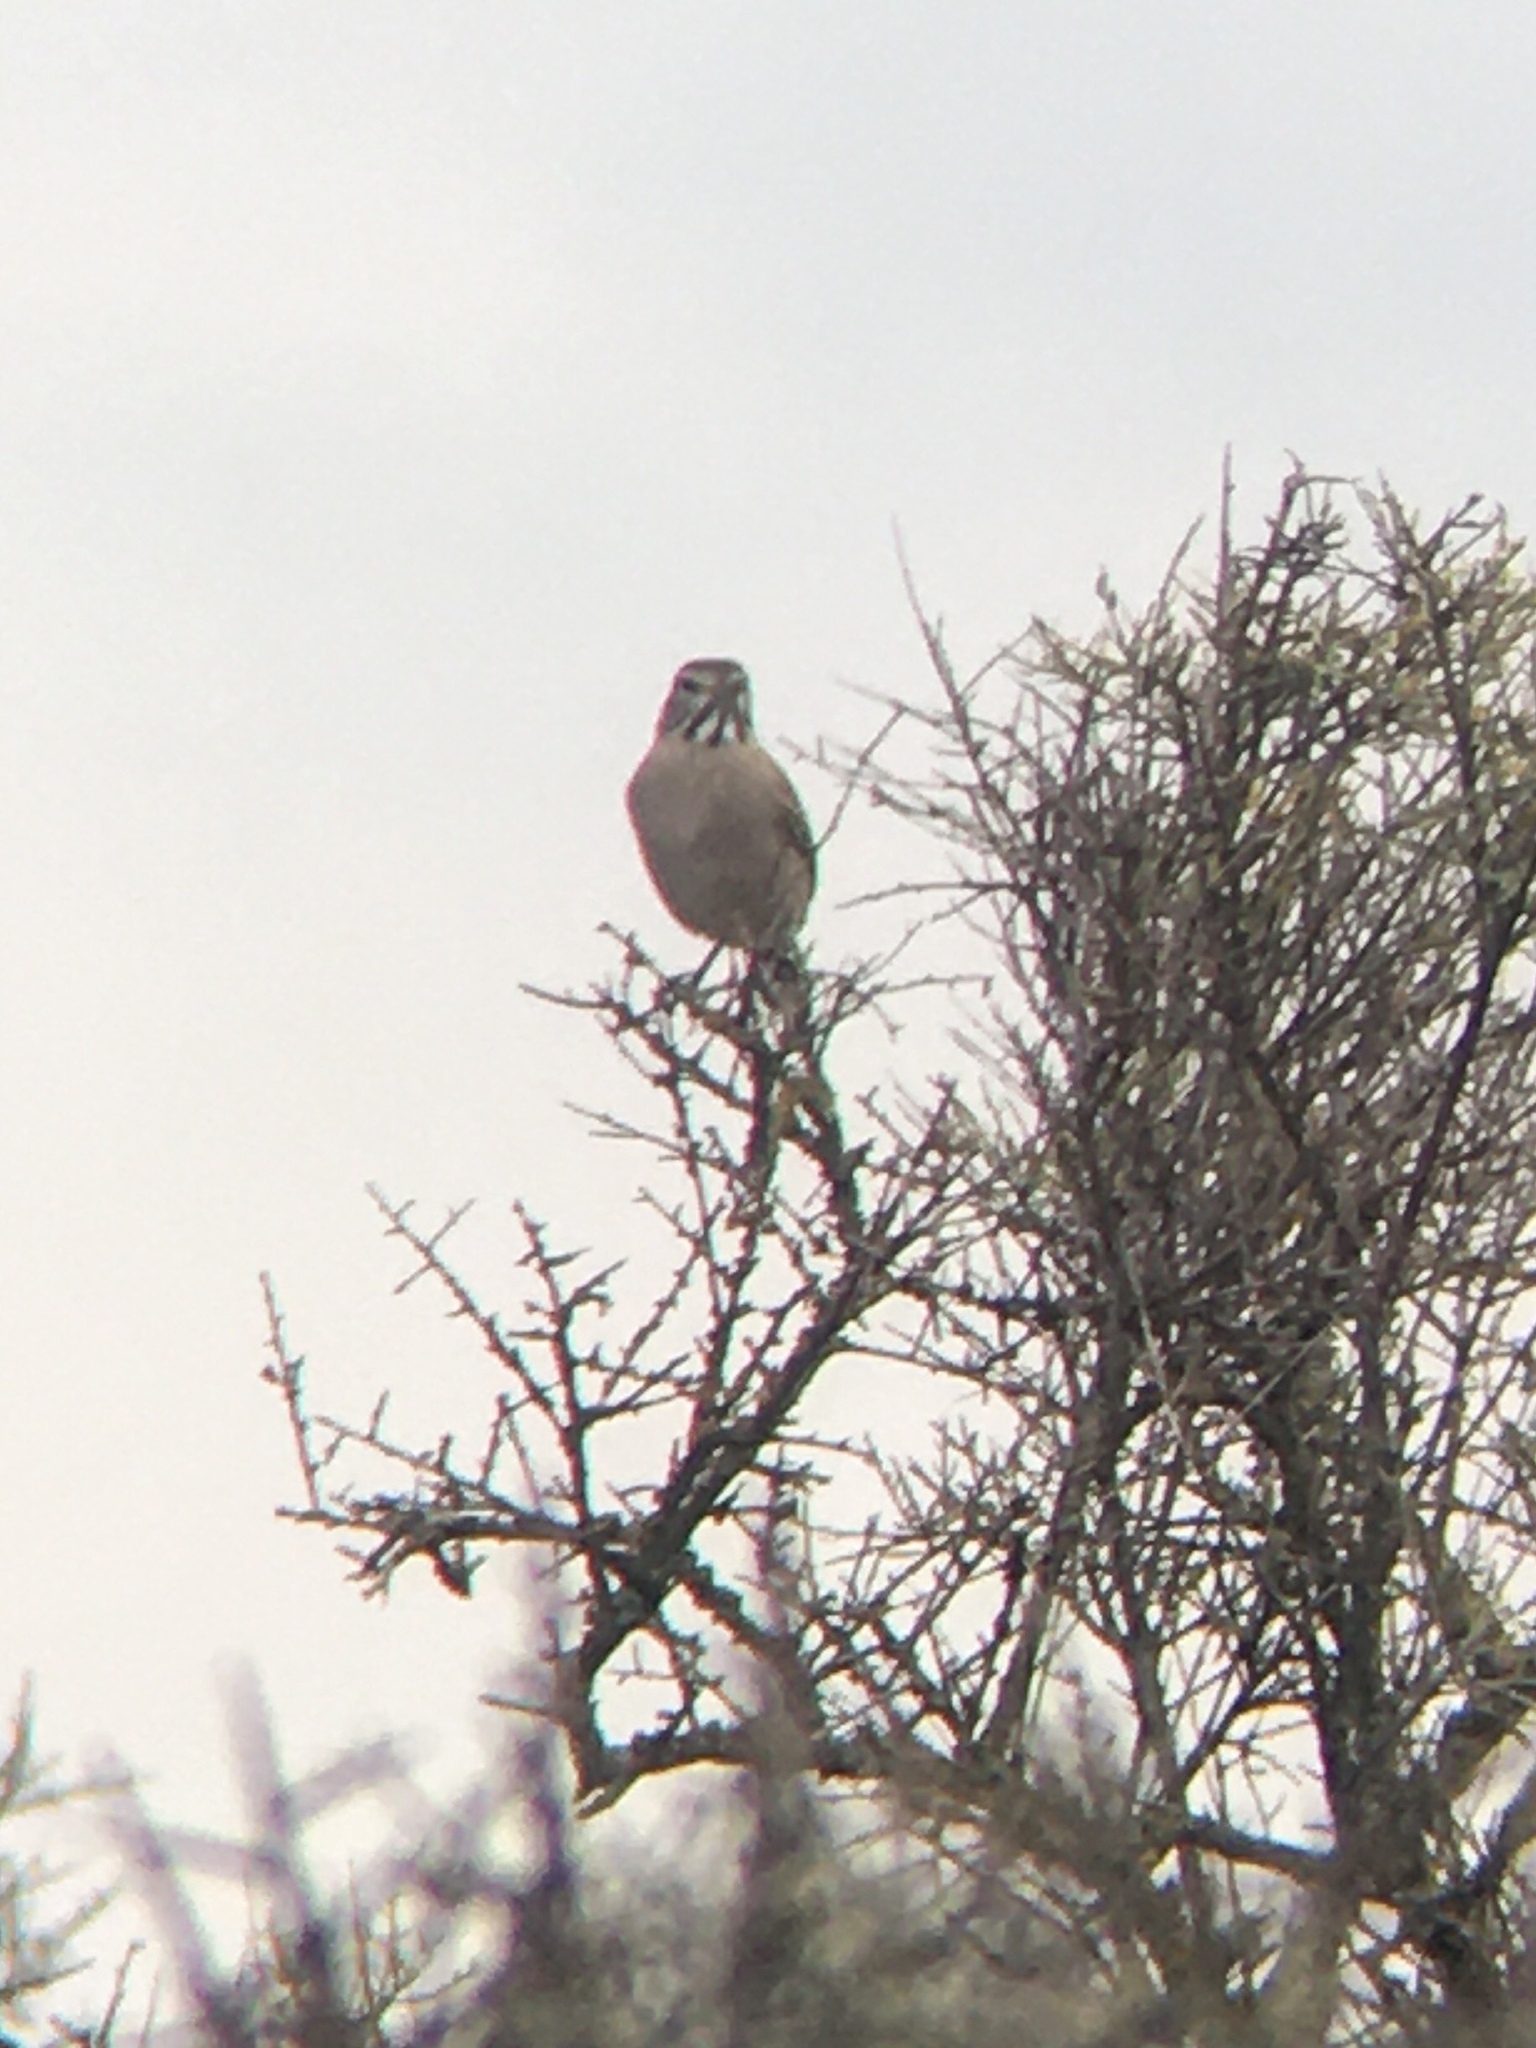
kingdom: Animalia
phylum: Chordata
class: Aves
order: Passeriformes
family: Tyrannidae
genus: Agriornis
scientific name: Agriornis micropterus
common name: Grey-bellied shrike-tyrant
